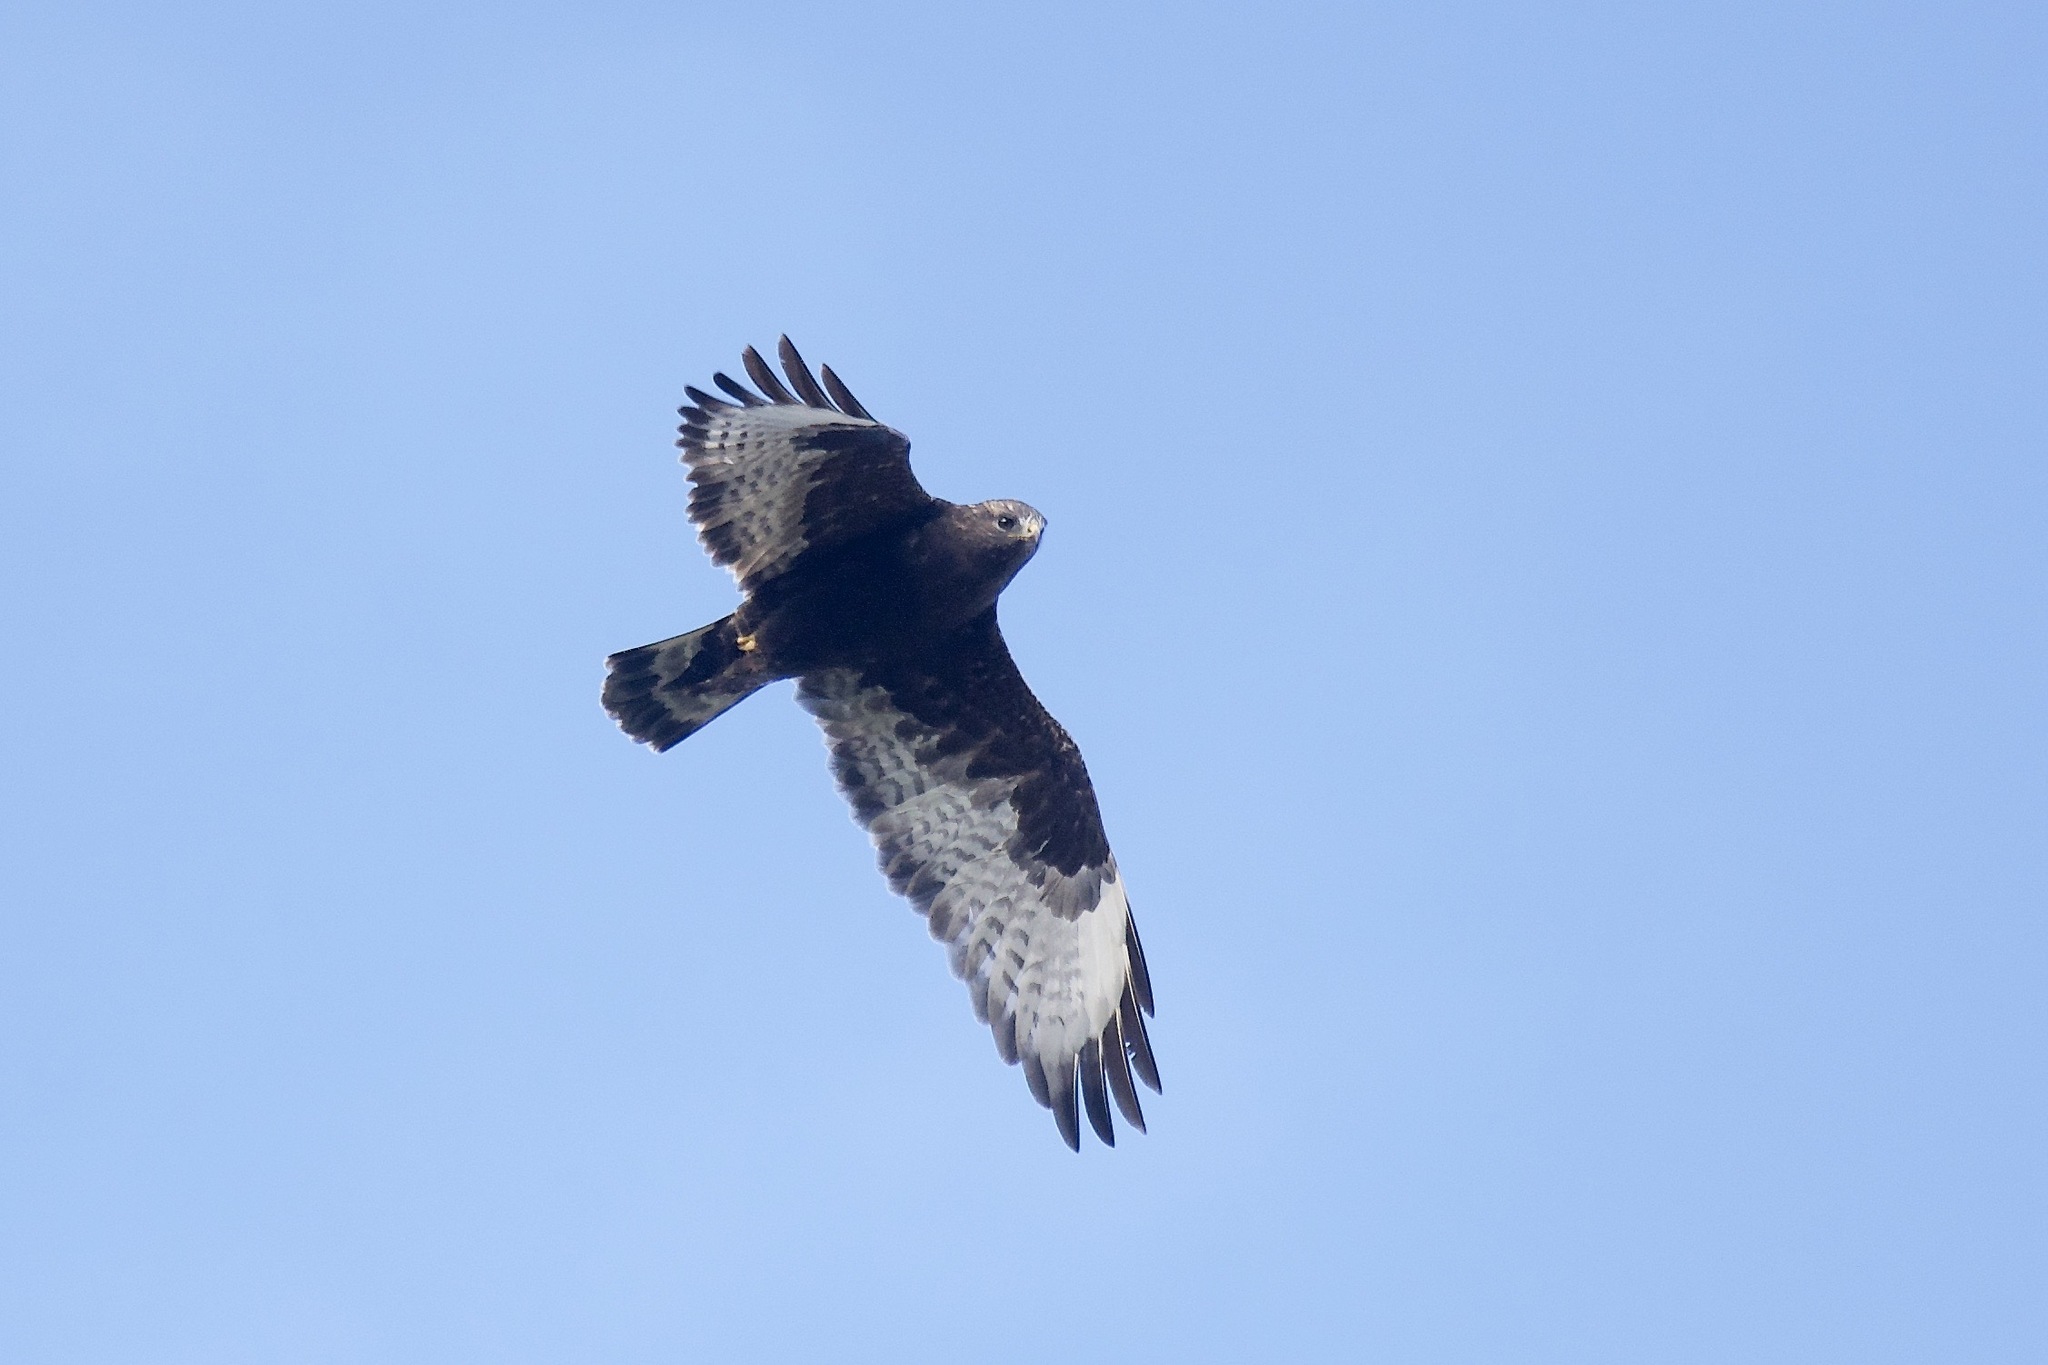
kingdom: Animalia
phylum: Chordata
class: Aves
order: Accipitriformes
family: Accipitridae
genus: Buteo
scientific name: Buteo lagopus
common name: Rough-legged buzzard
